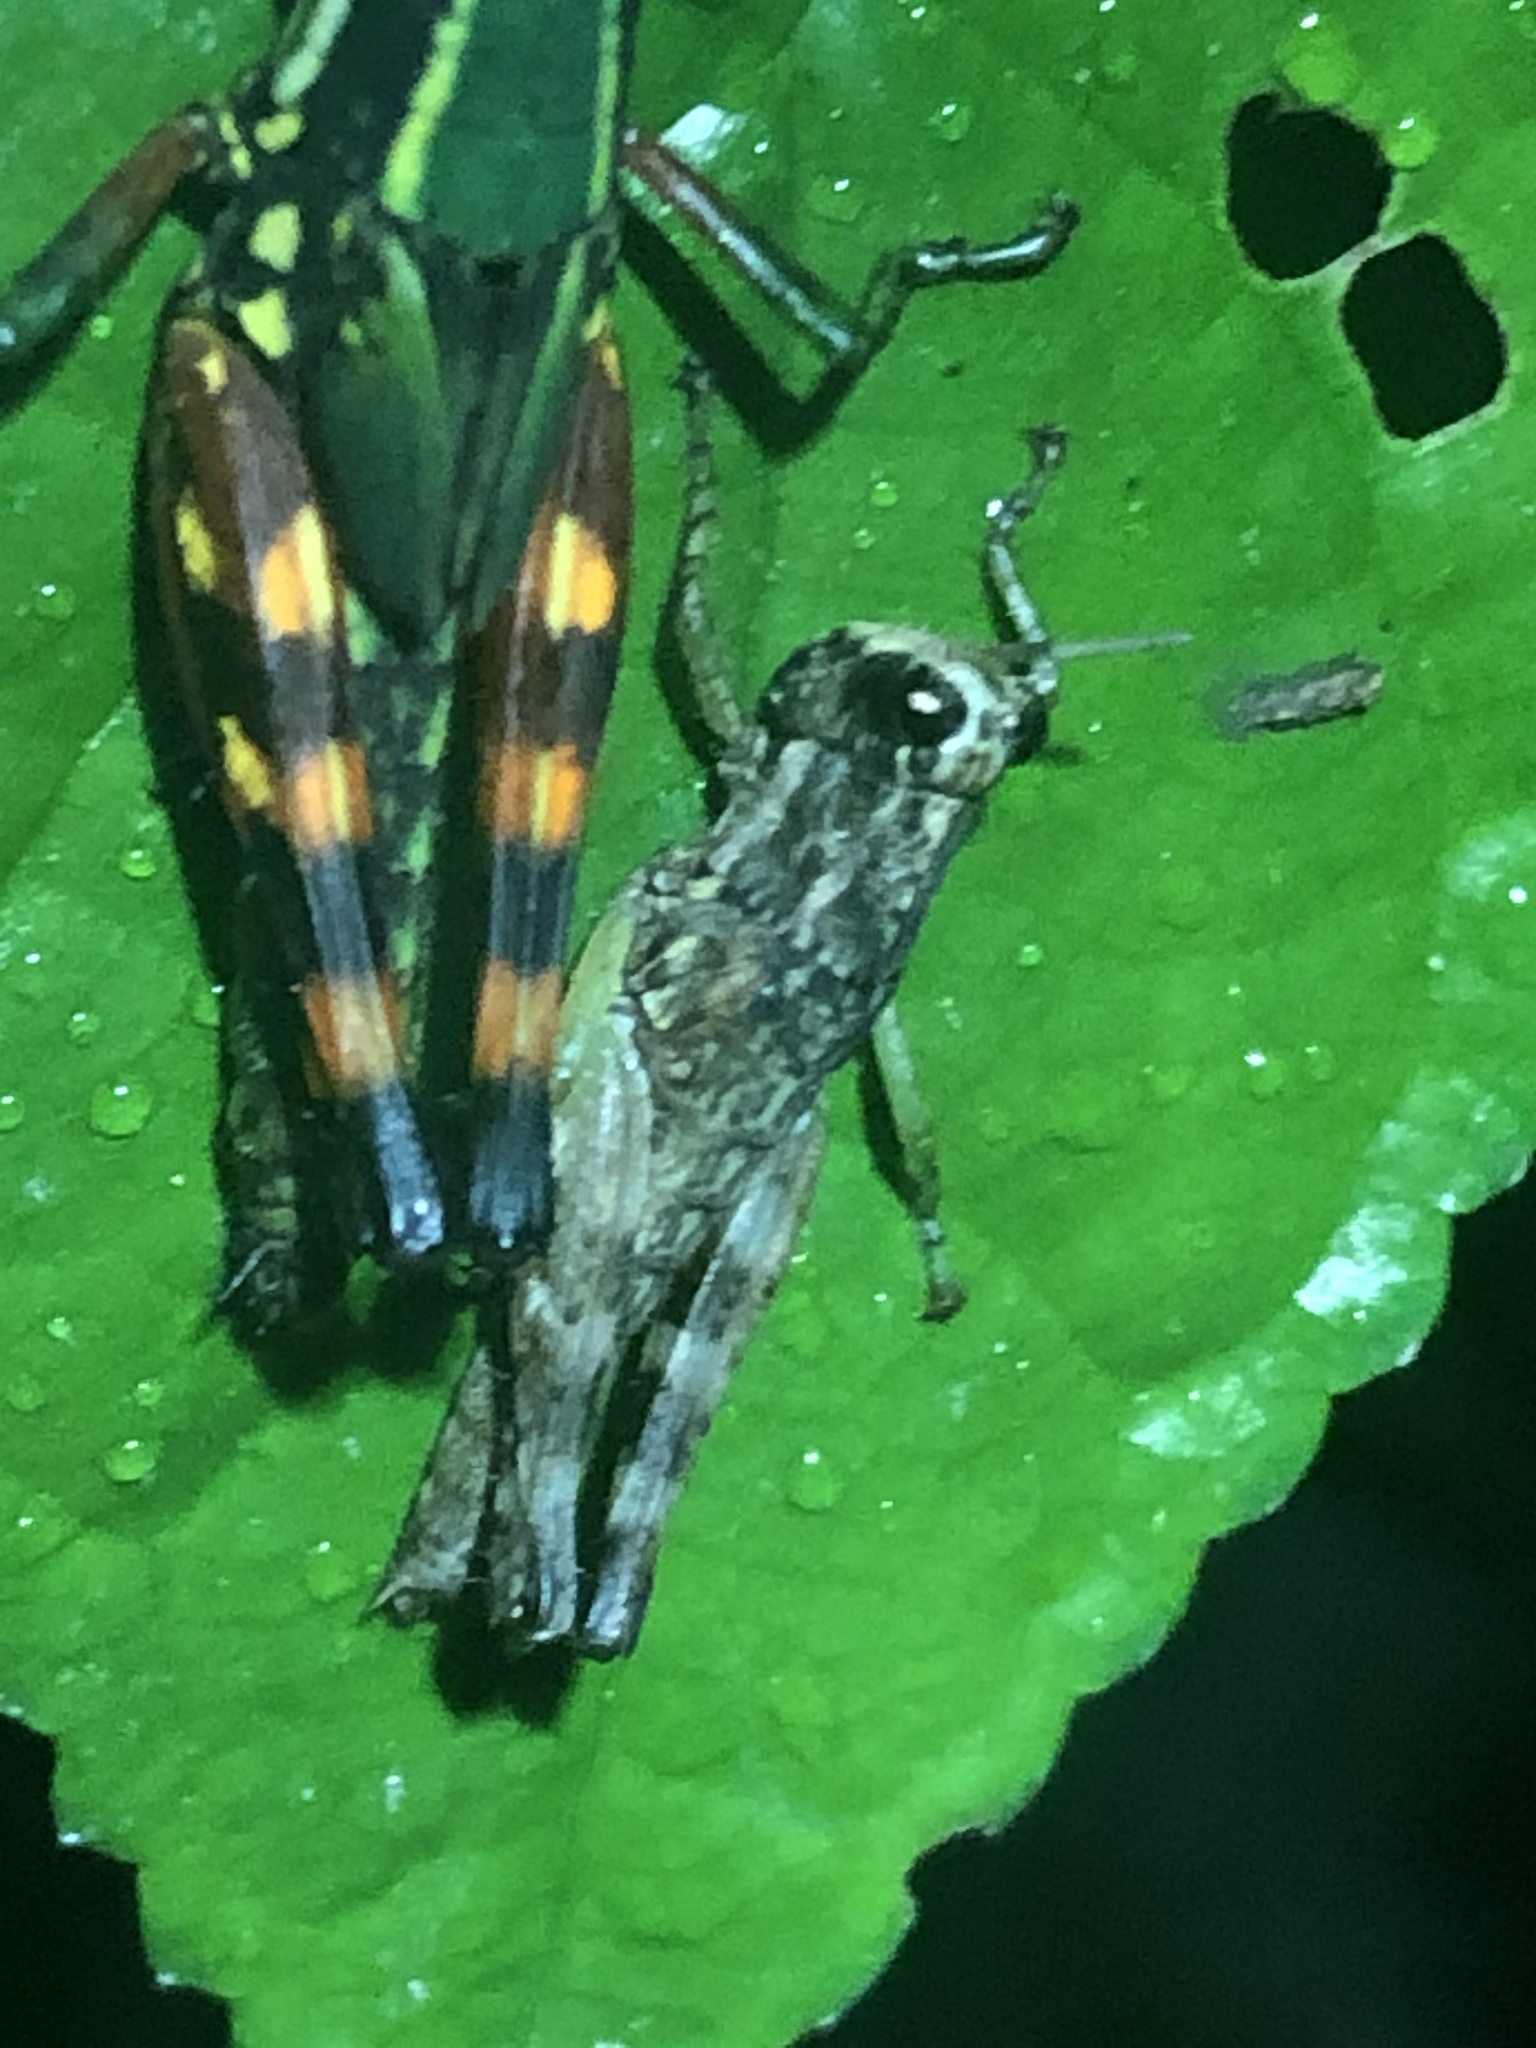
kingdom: Animalia
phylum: Arthropoda
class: Insecta
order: Orthoptera
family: Acrididae
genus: Tetrataenia
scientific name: Tetrataenia surinama
